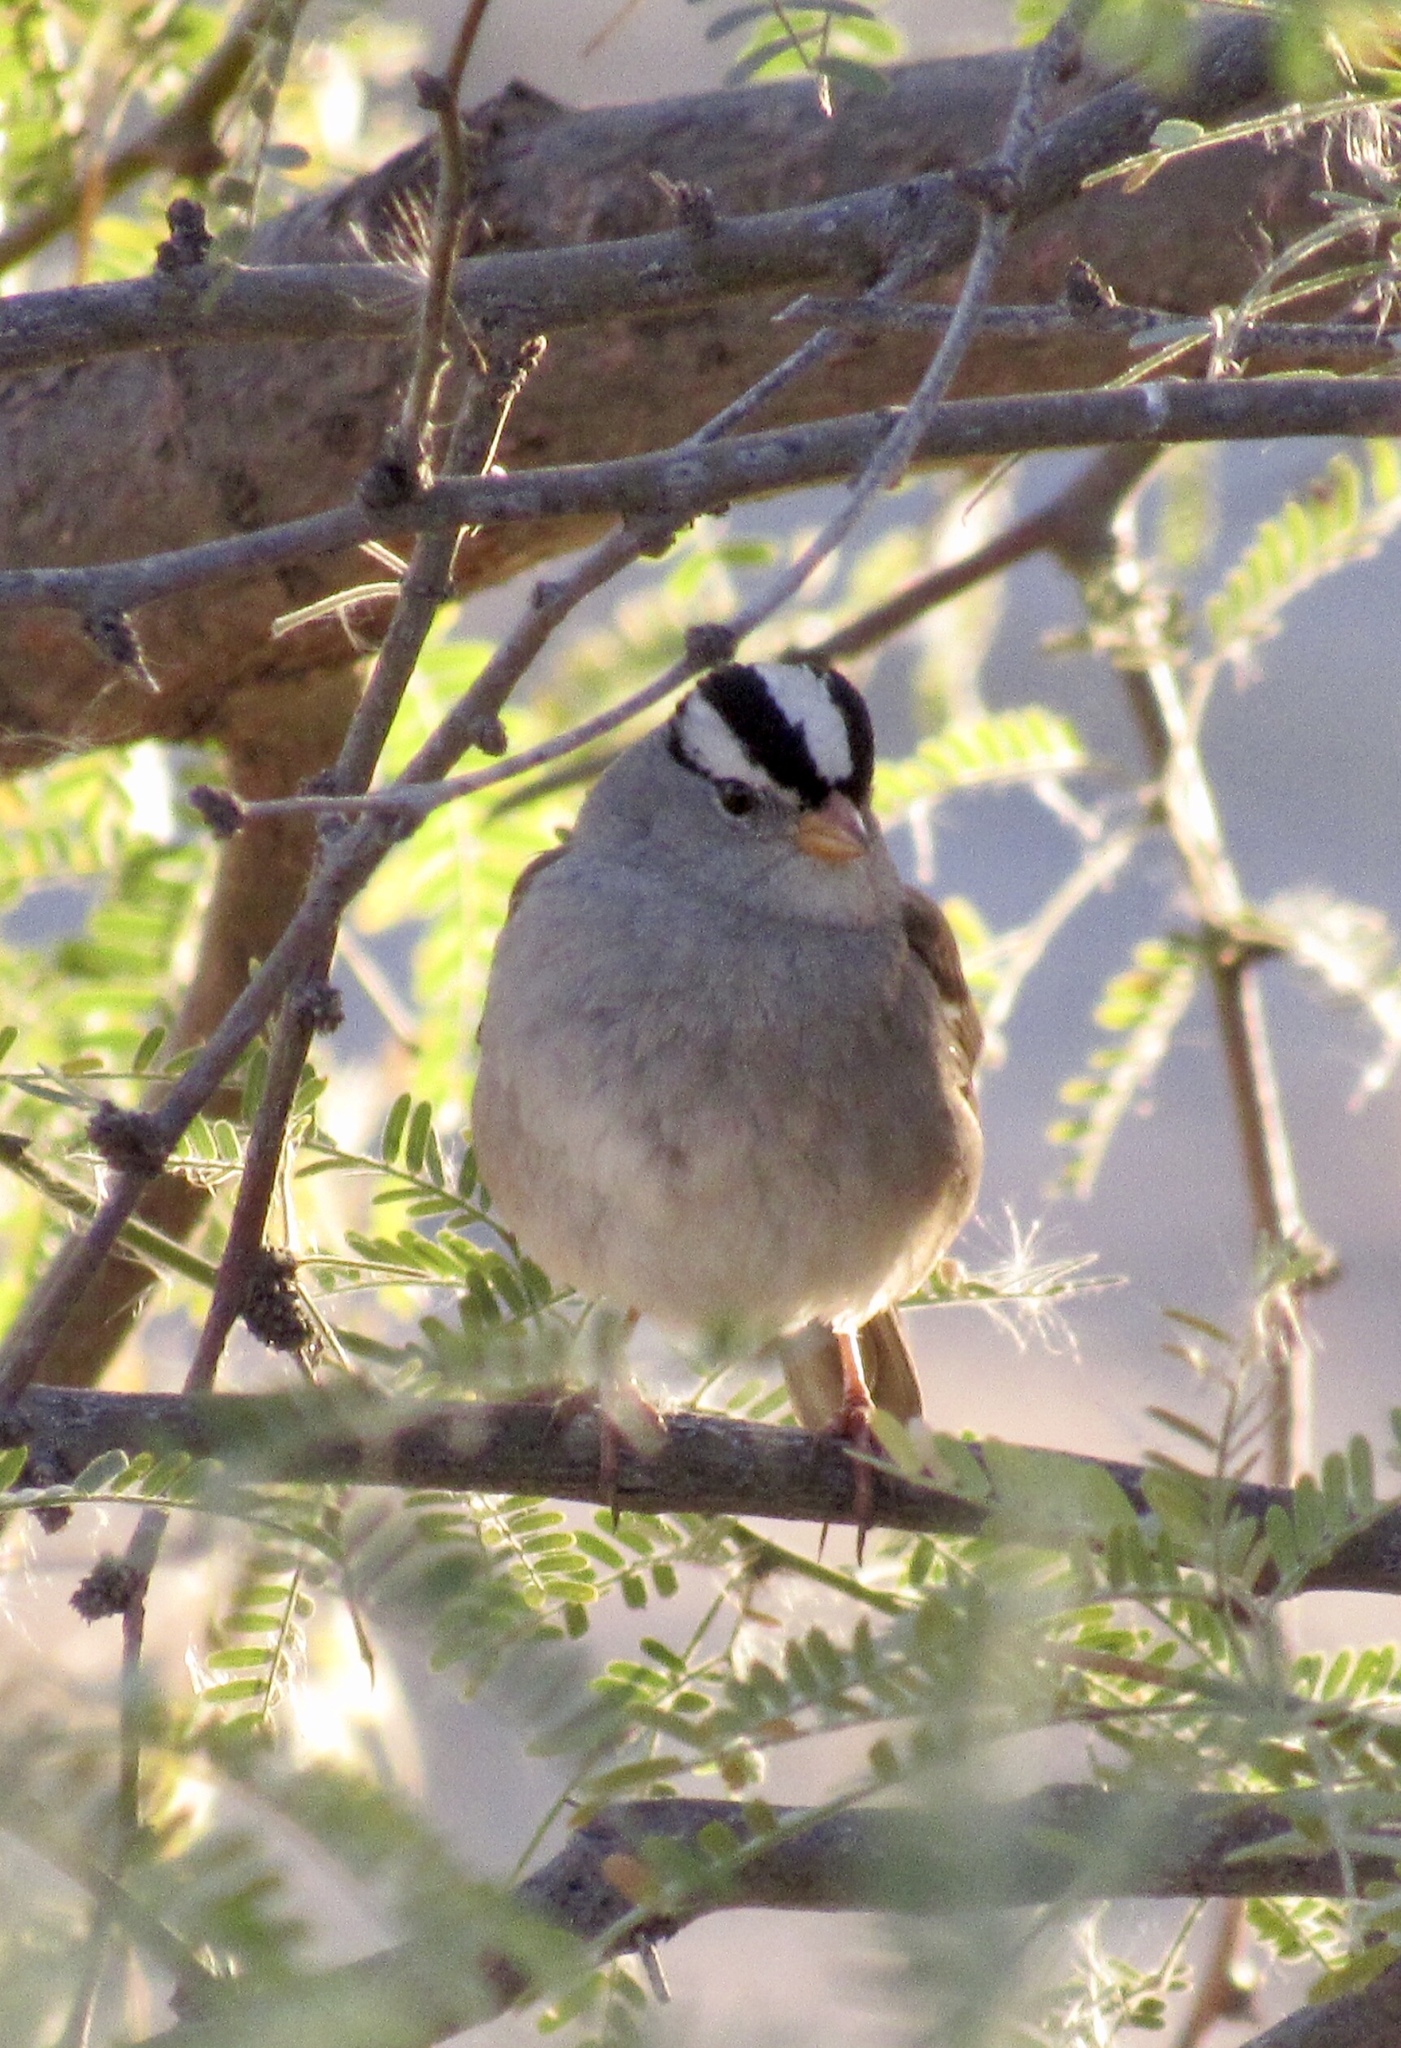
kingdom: Animalia
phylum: Chordata
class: Aves
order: Passeriformes
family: Passerellidae
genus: Zonotrichia
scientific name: Zonotrichia leucophrys
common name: White-crowned sparrow
